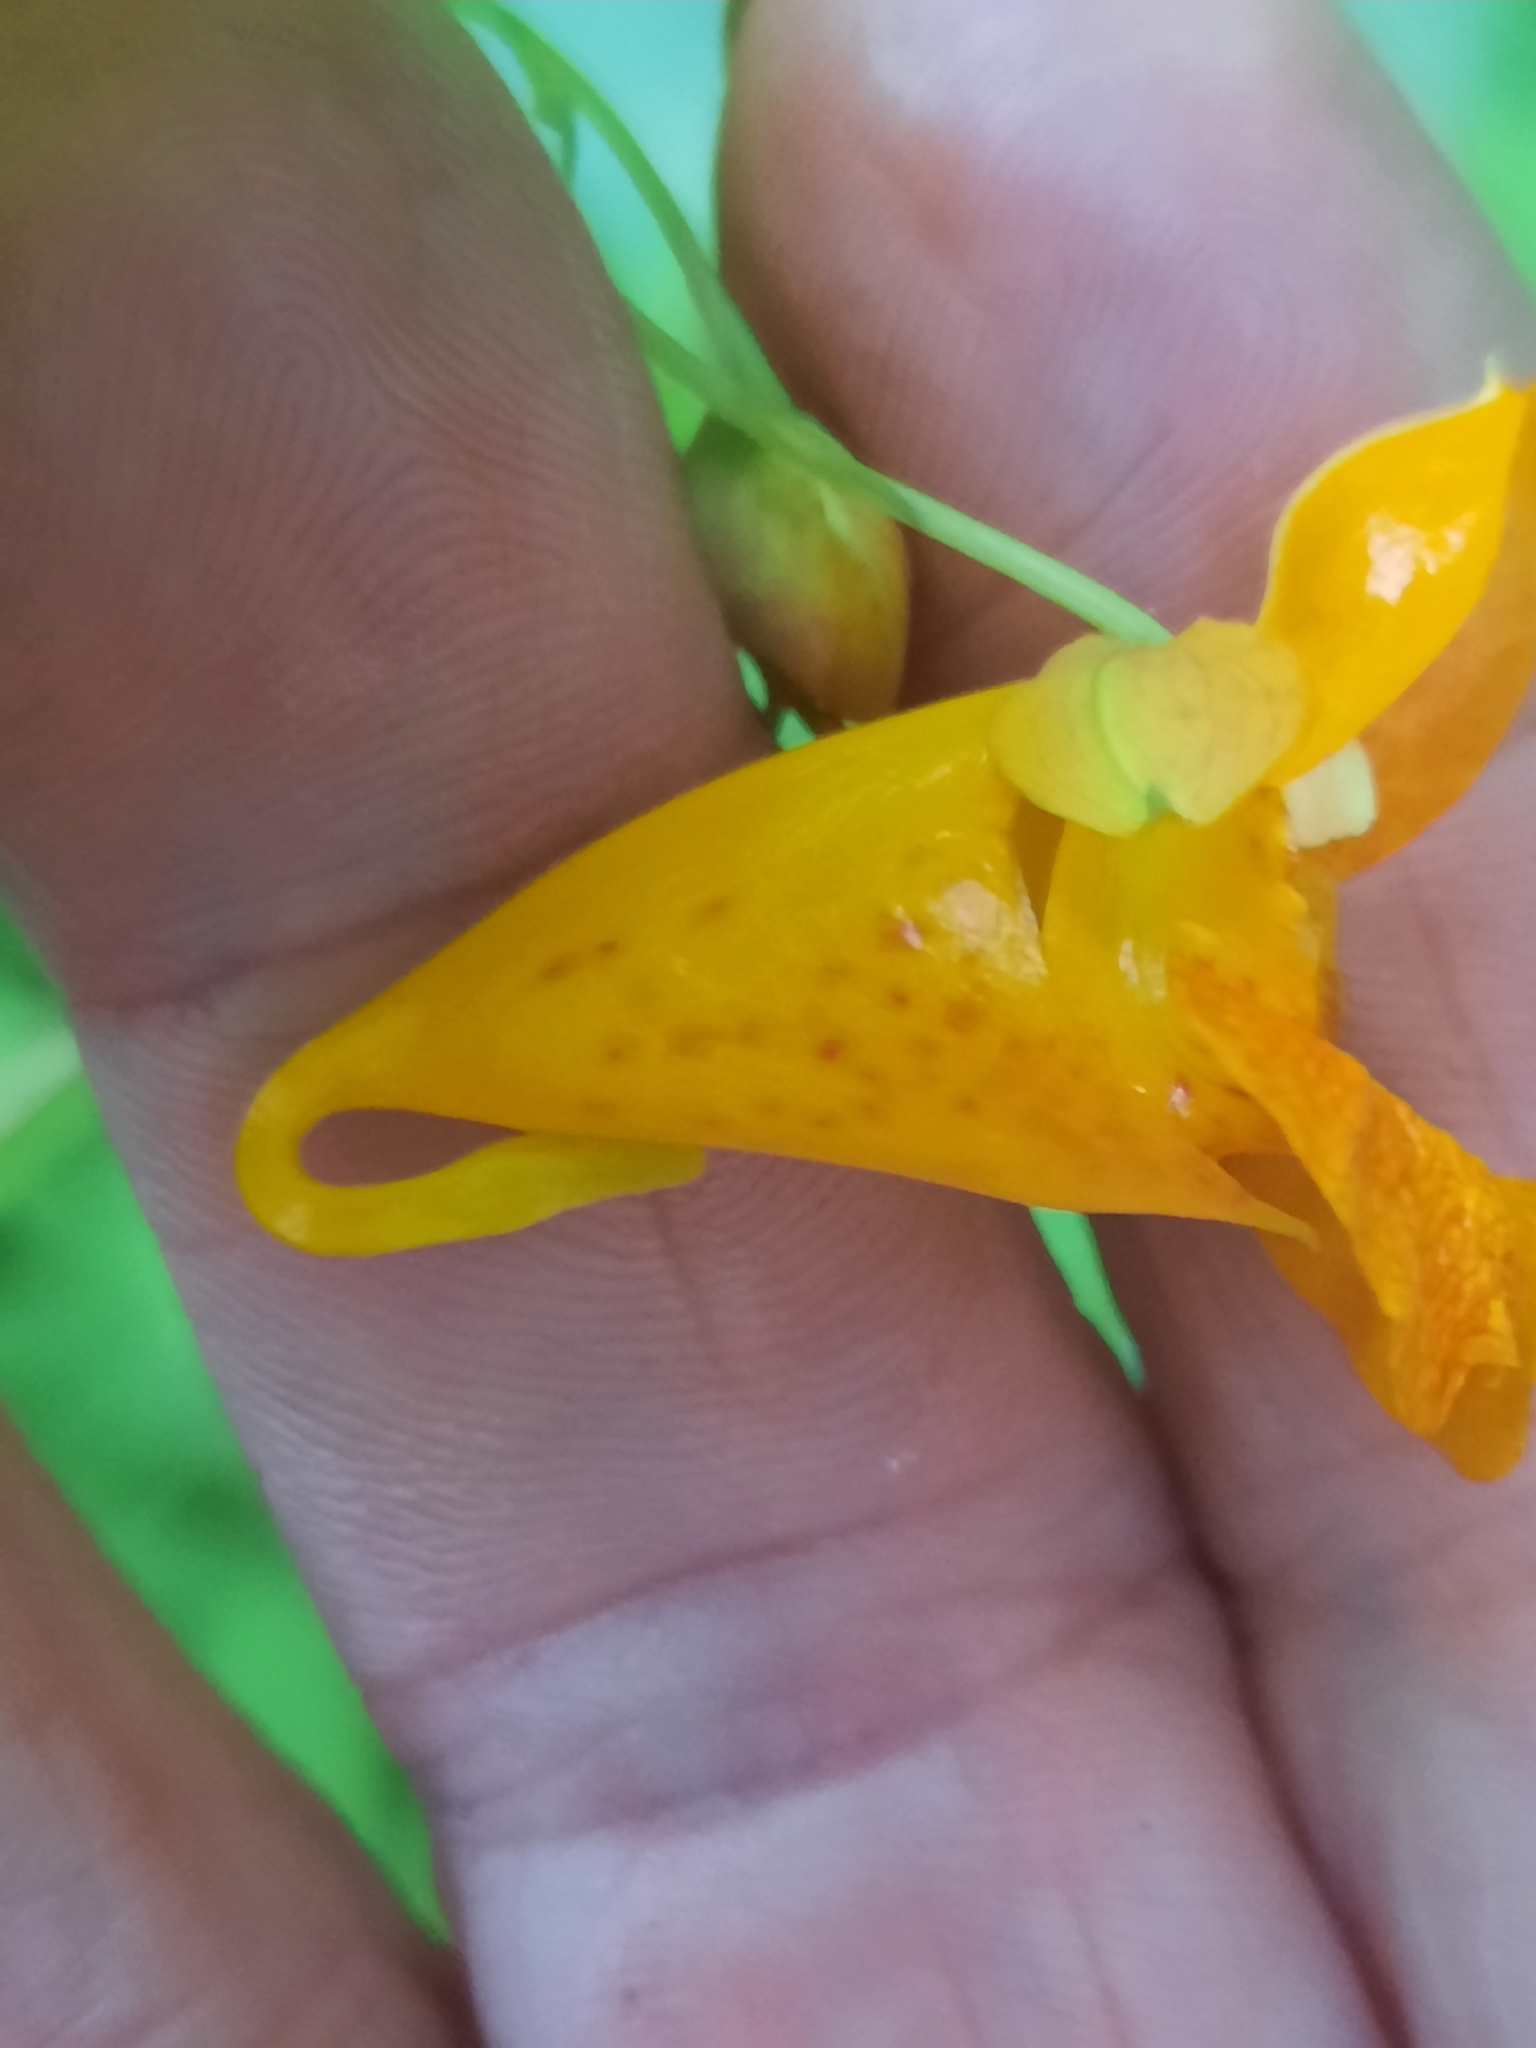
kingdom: Plantae
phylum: Tracheophyta
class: Magnoliopsida
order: Ericales
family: Balsaminaceae
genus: Impatiens
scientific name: Impatiens capensis
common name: Orange balsam
